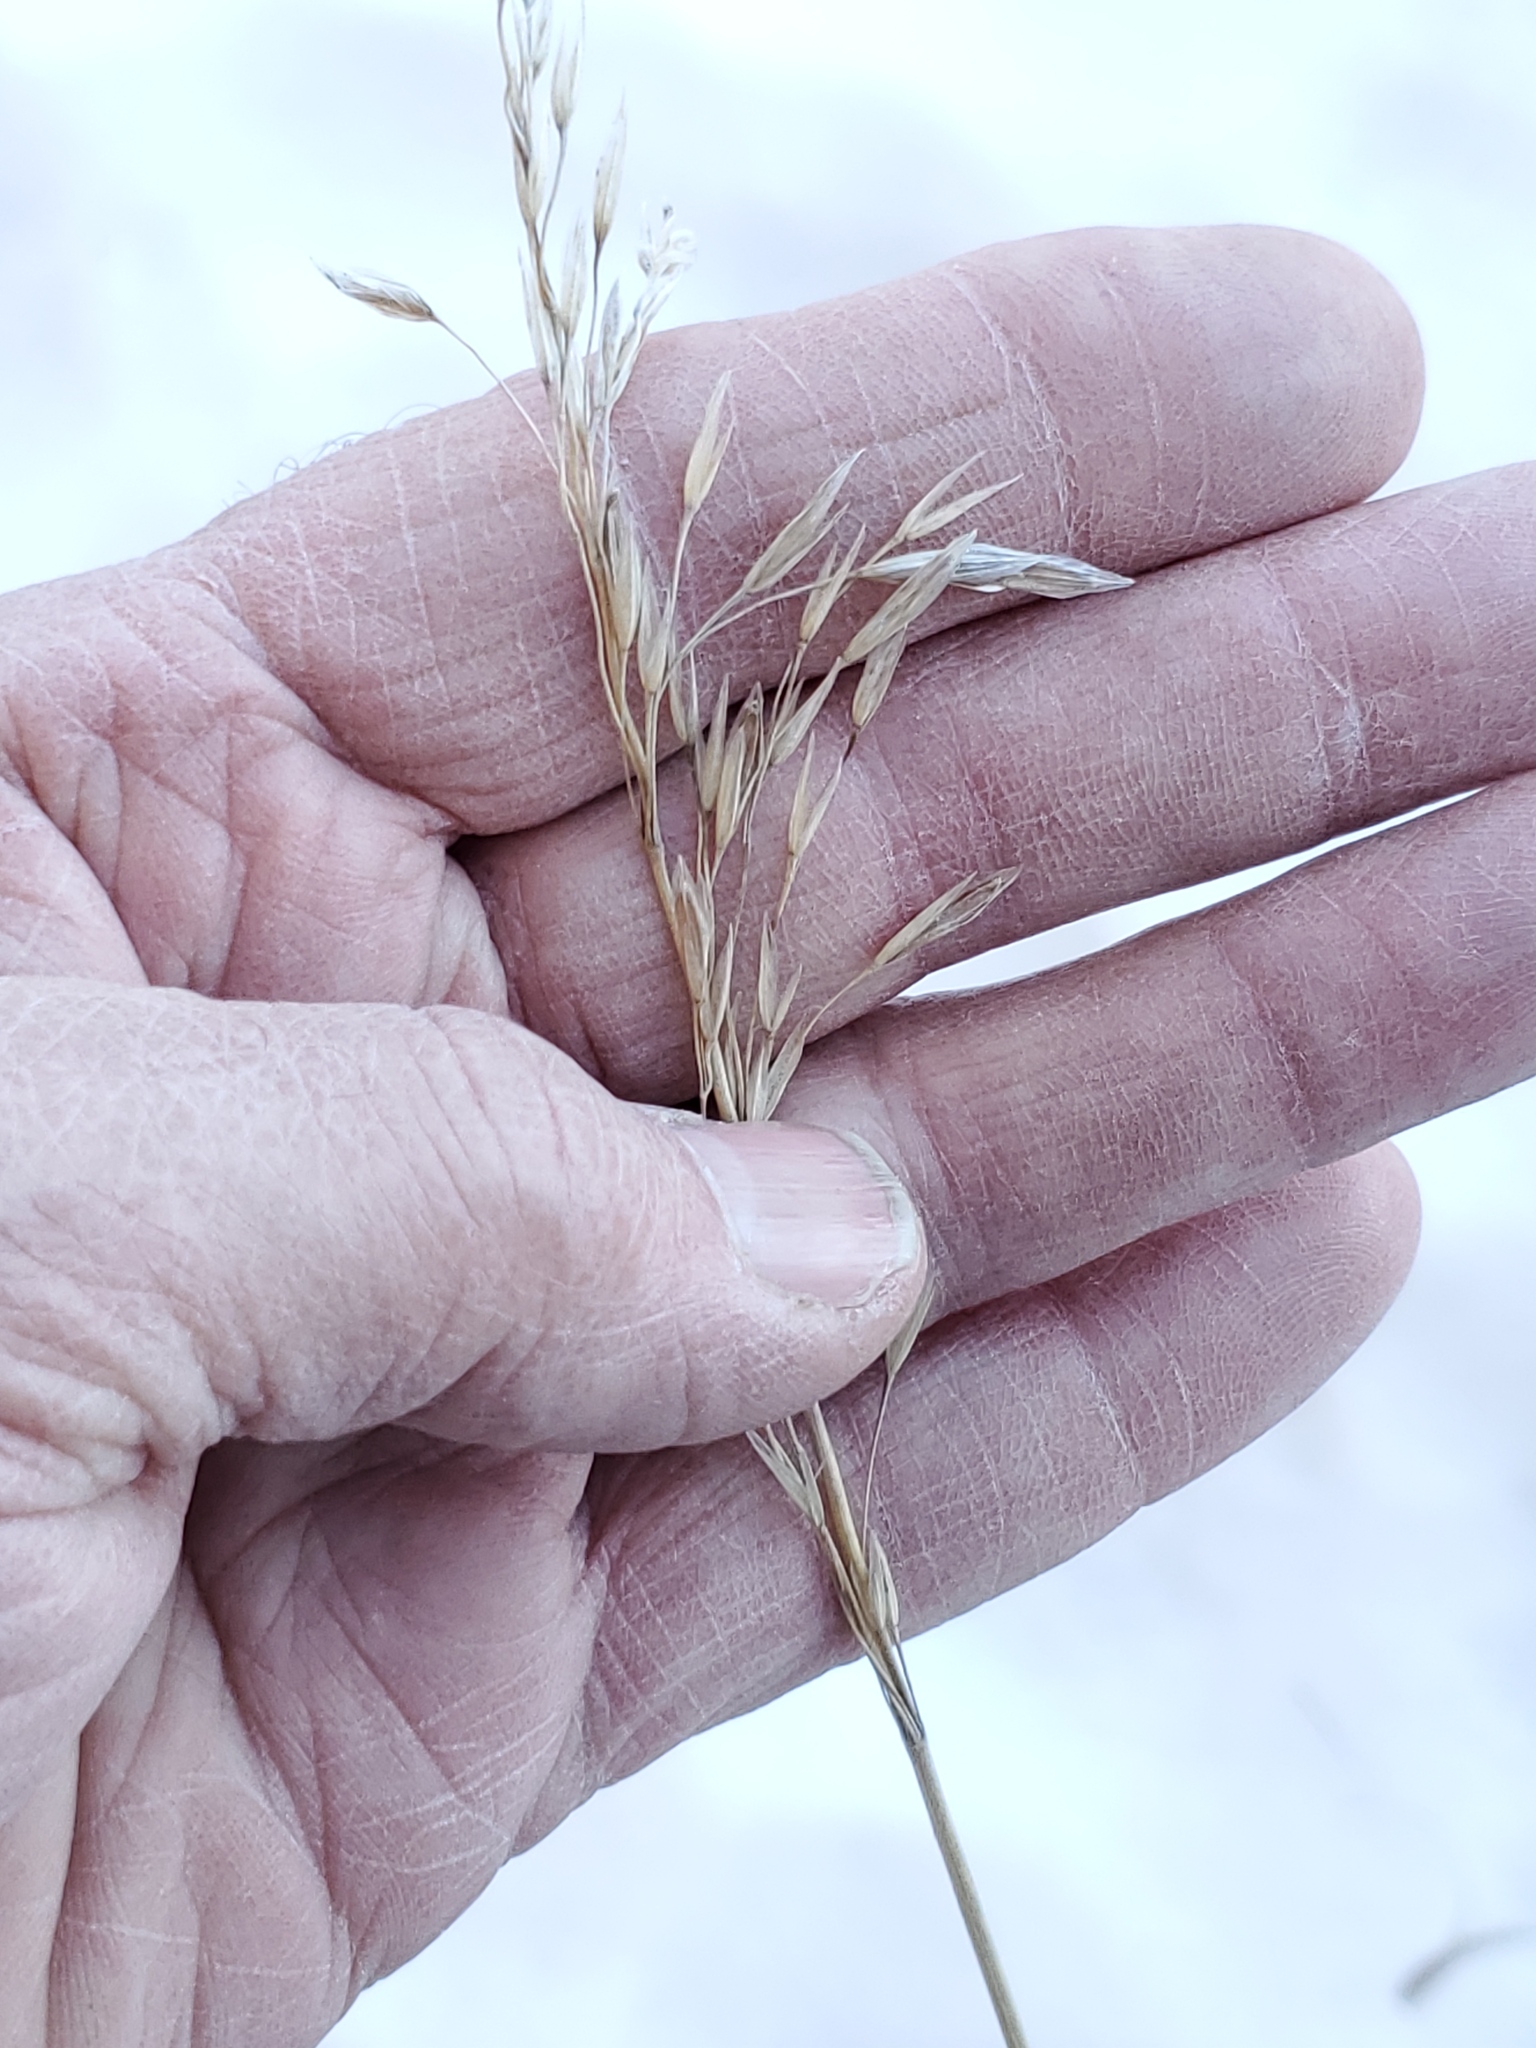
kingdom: Plantae
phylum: Tracheophyta
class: Liliopsida
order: Poales
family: Poaceae
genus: Bromus
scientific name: Bromus inermis
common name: Smooth brome
